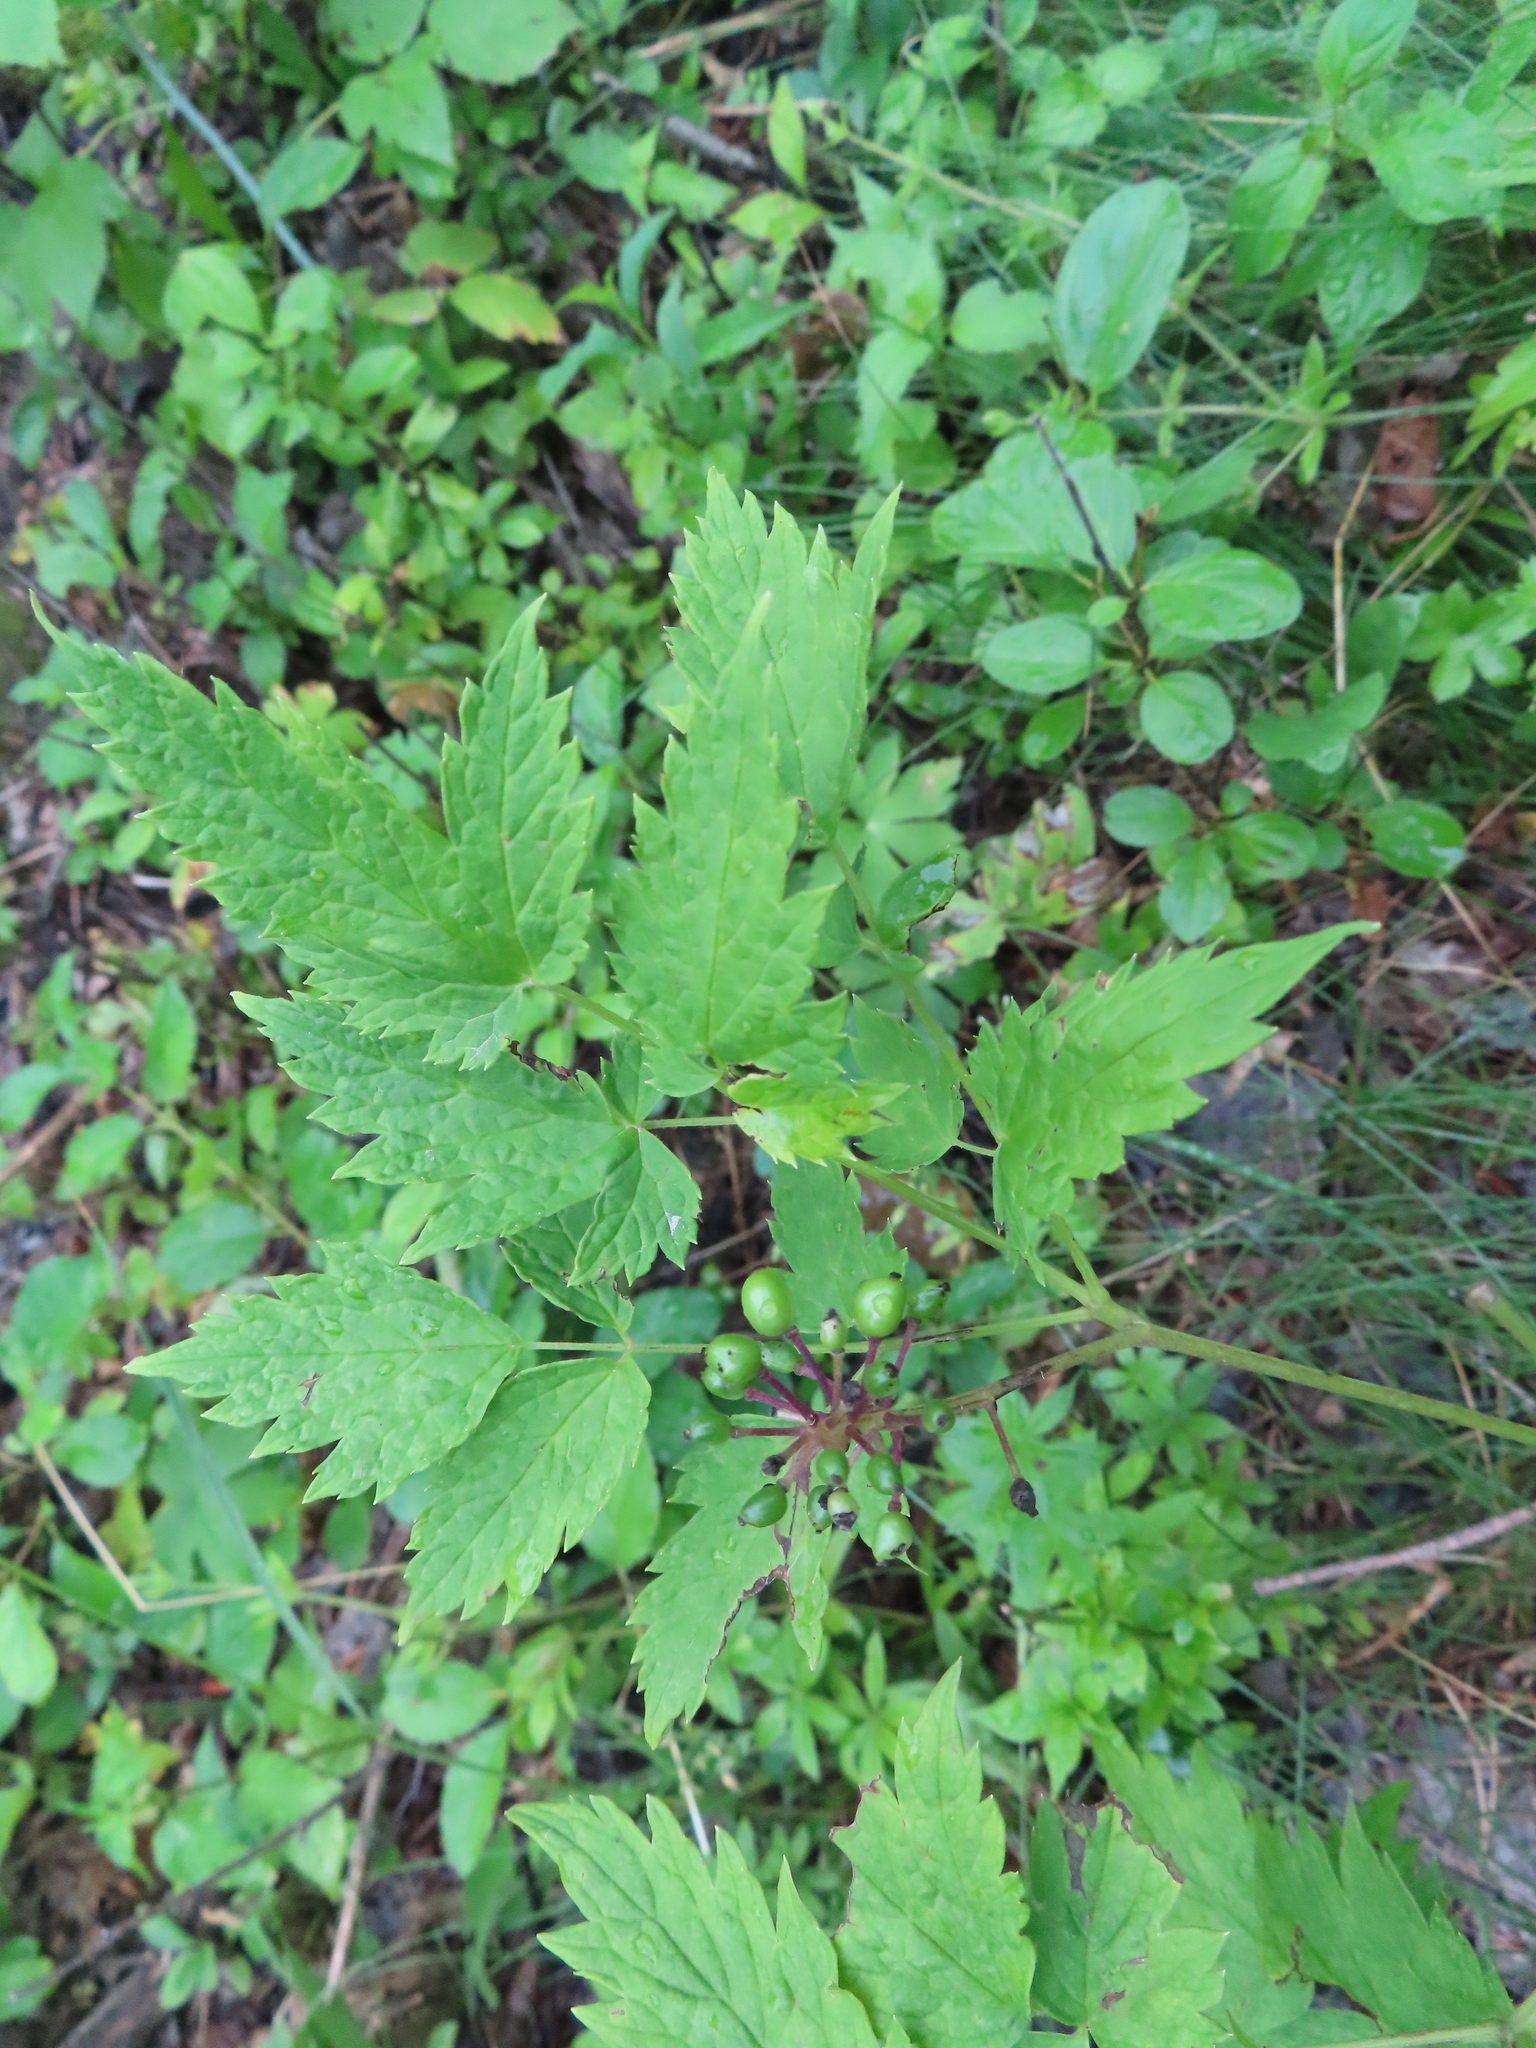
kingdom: Plantae
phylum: Tracheophyta
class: Magnoliopsida
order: Ranunculales
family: Ranunculaceae
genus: Actaea
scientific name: Actaea rubra
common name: Red baneberry
